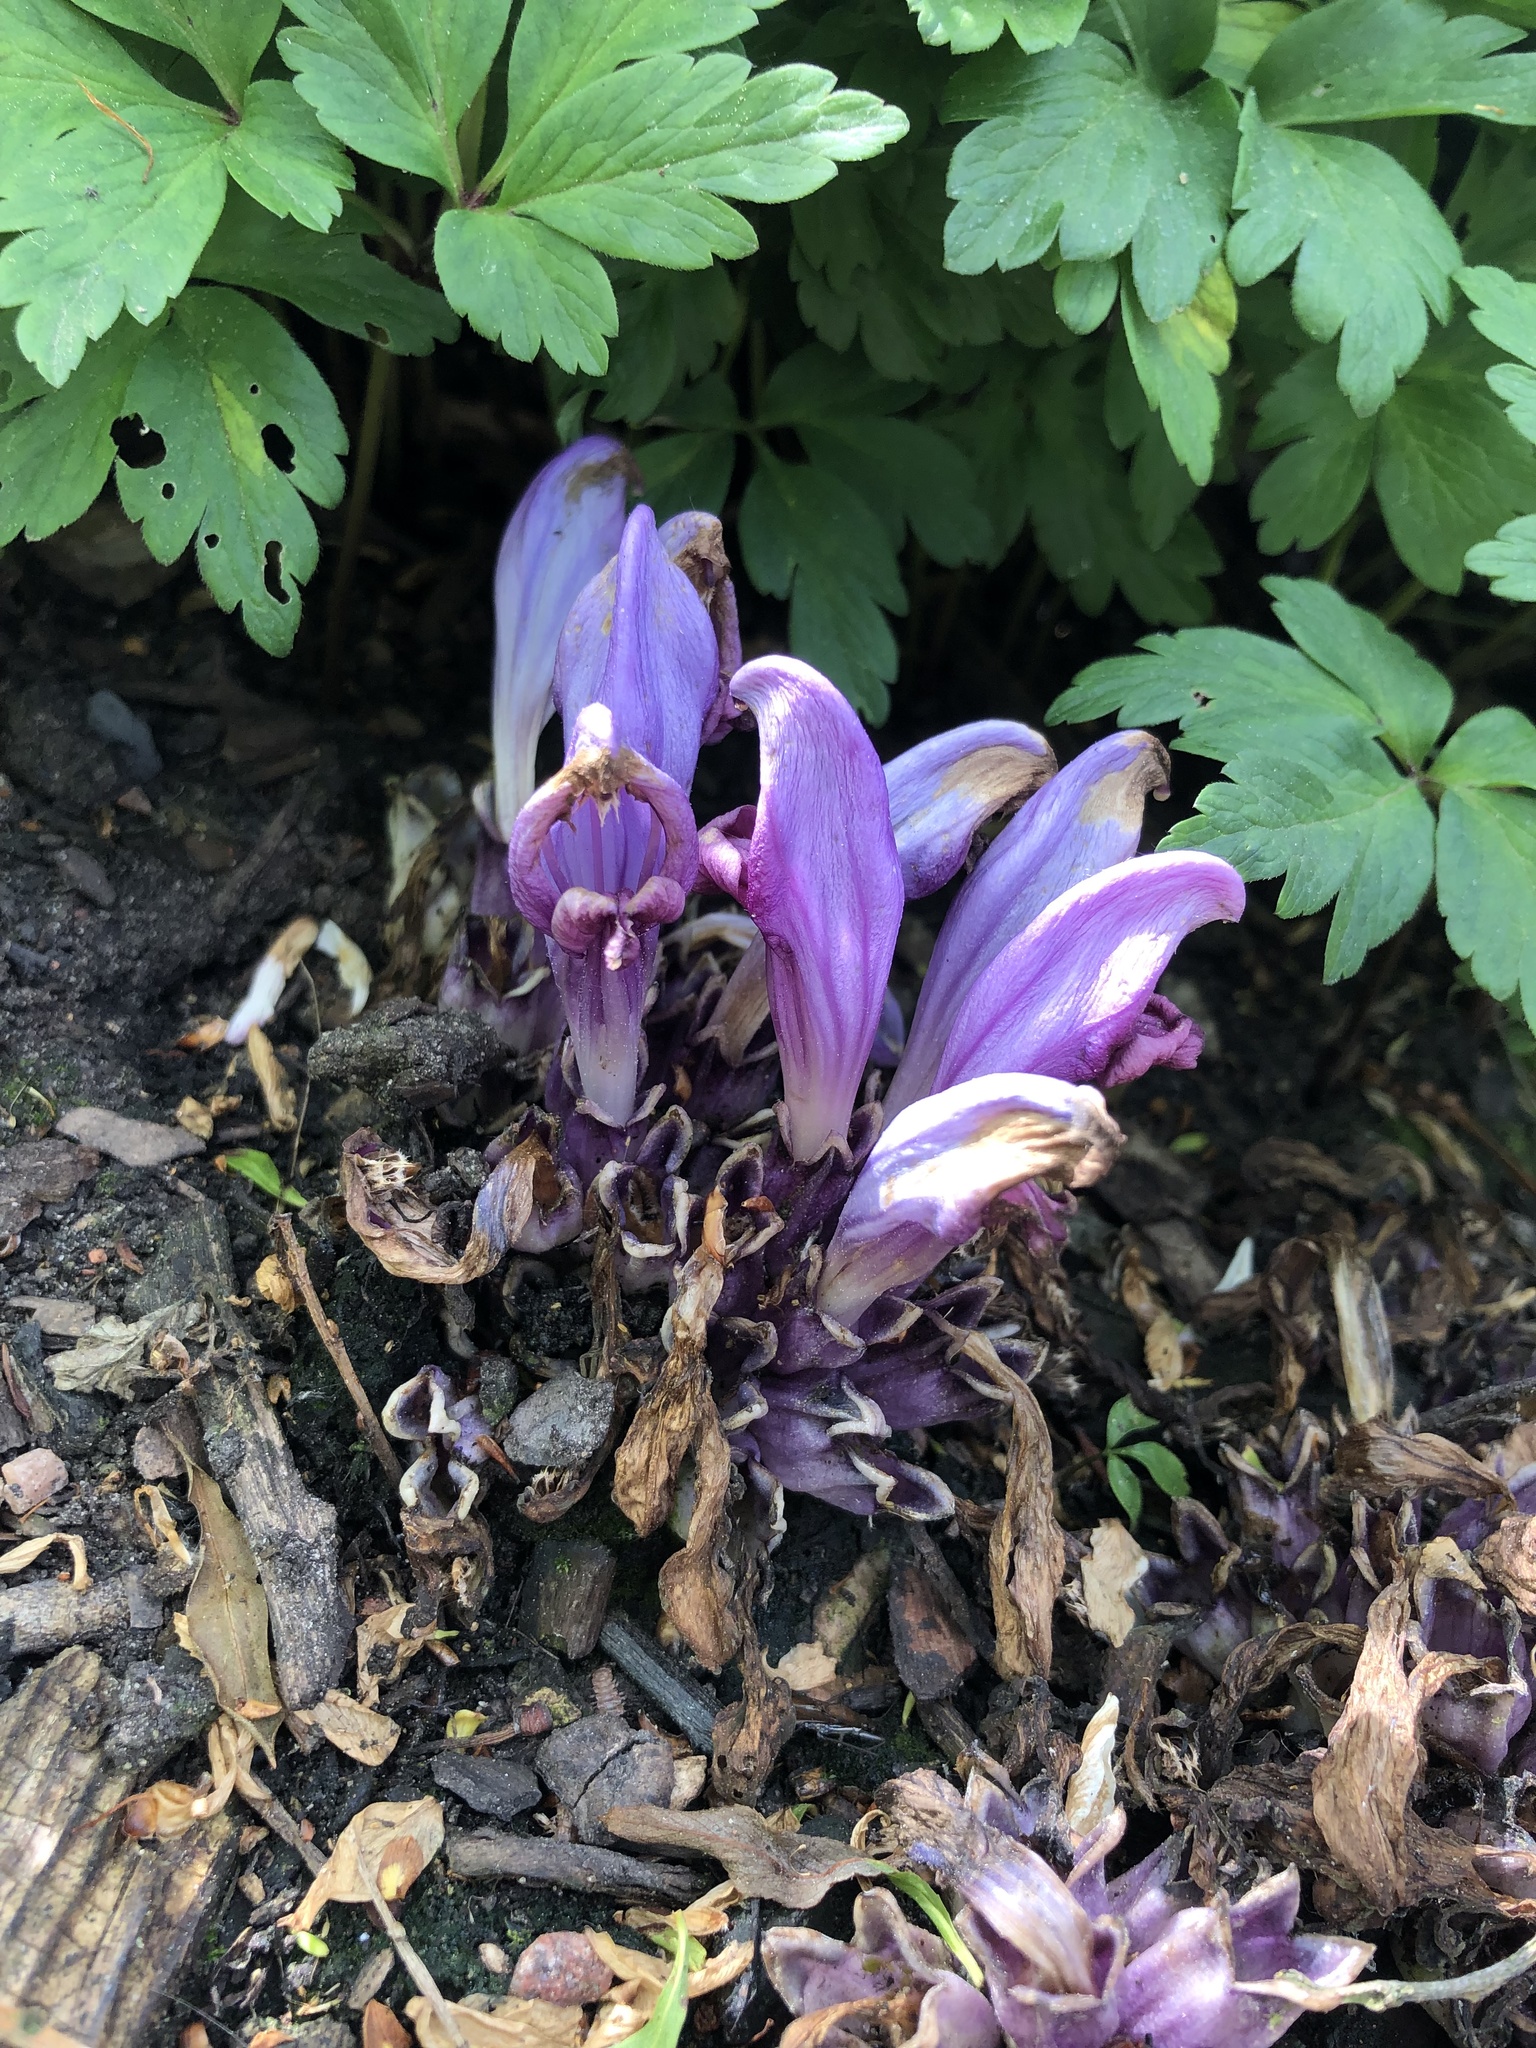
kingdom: Plantae
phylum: Tracheophyta
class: Magnoliopsida
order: Lamiales
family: Orobanchaceae
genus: Lathraea
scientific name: Lathraea clandestina
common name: Purple toothwort
